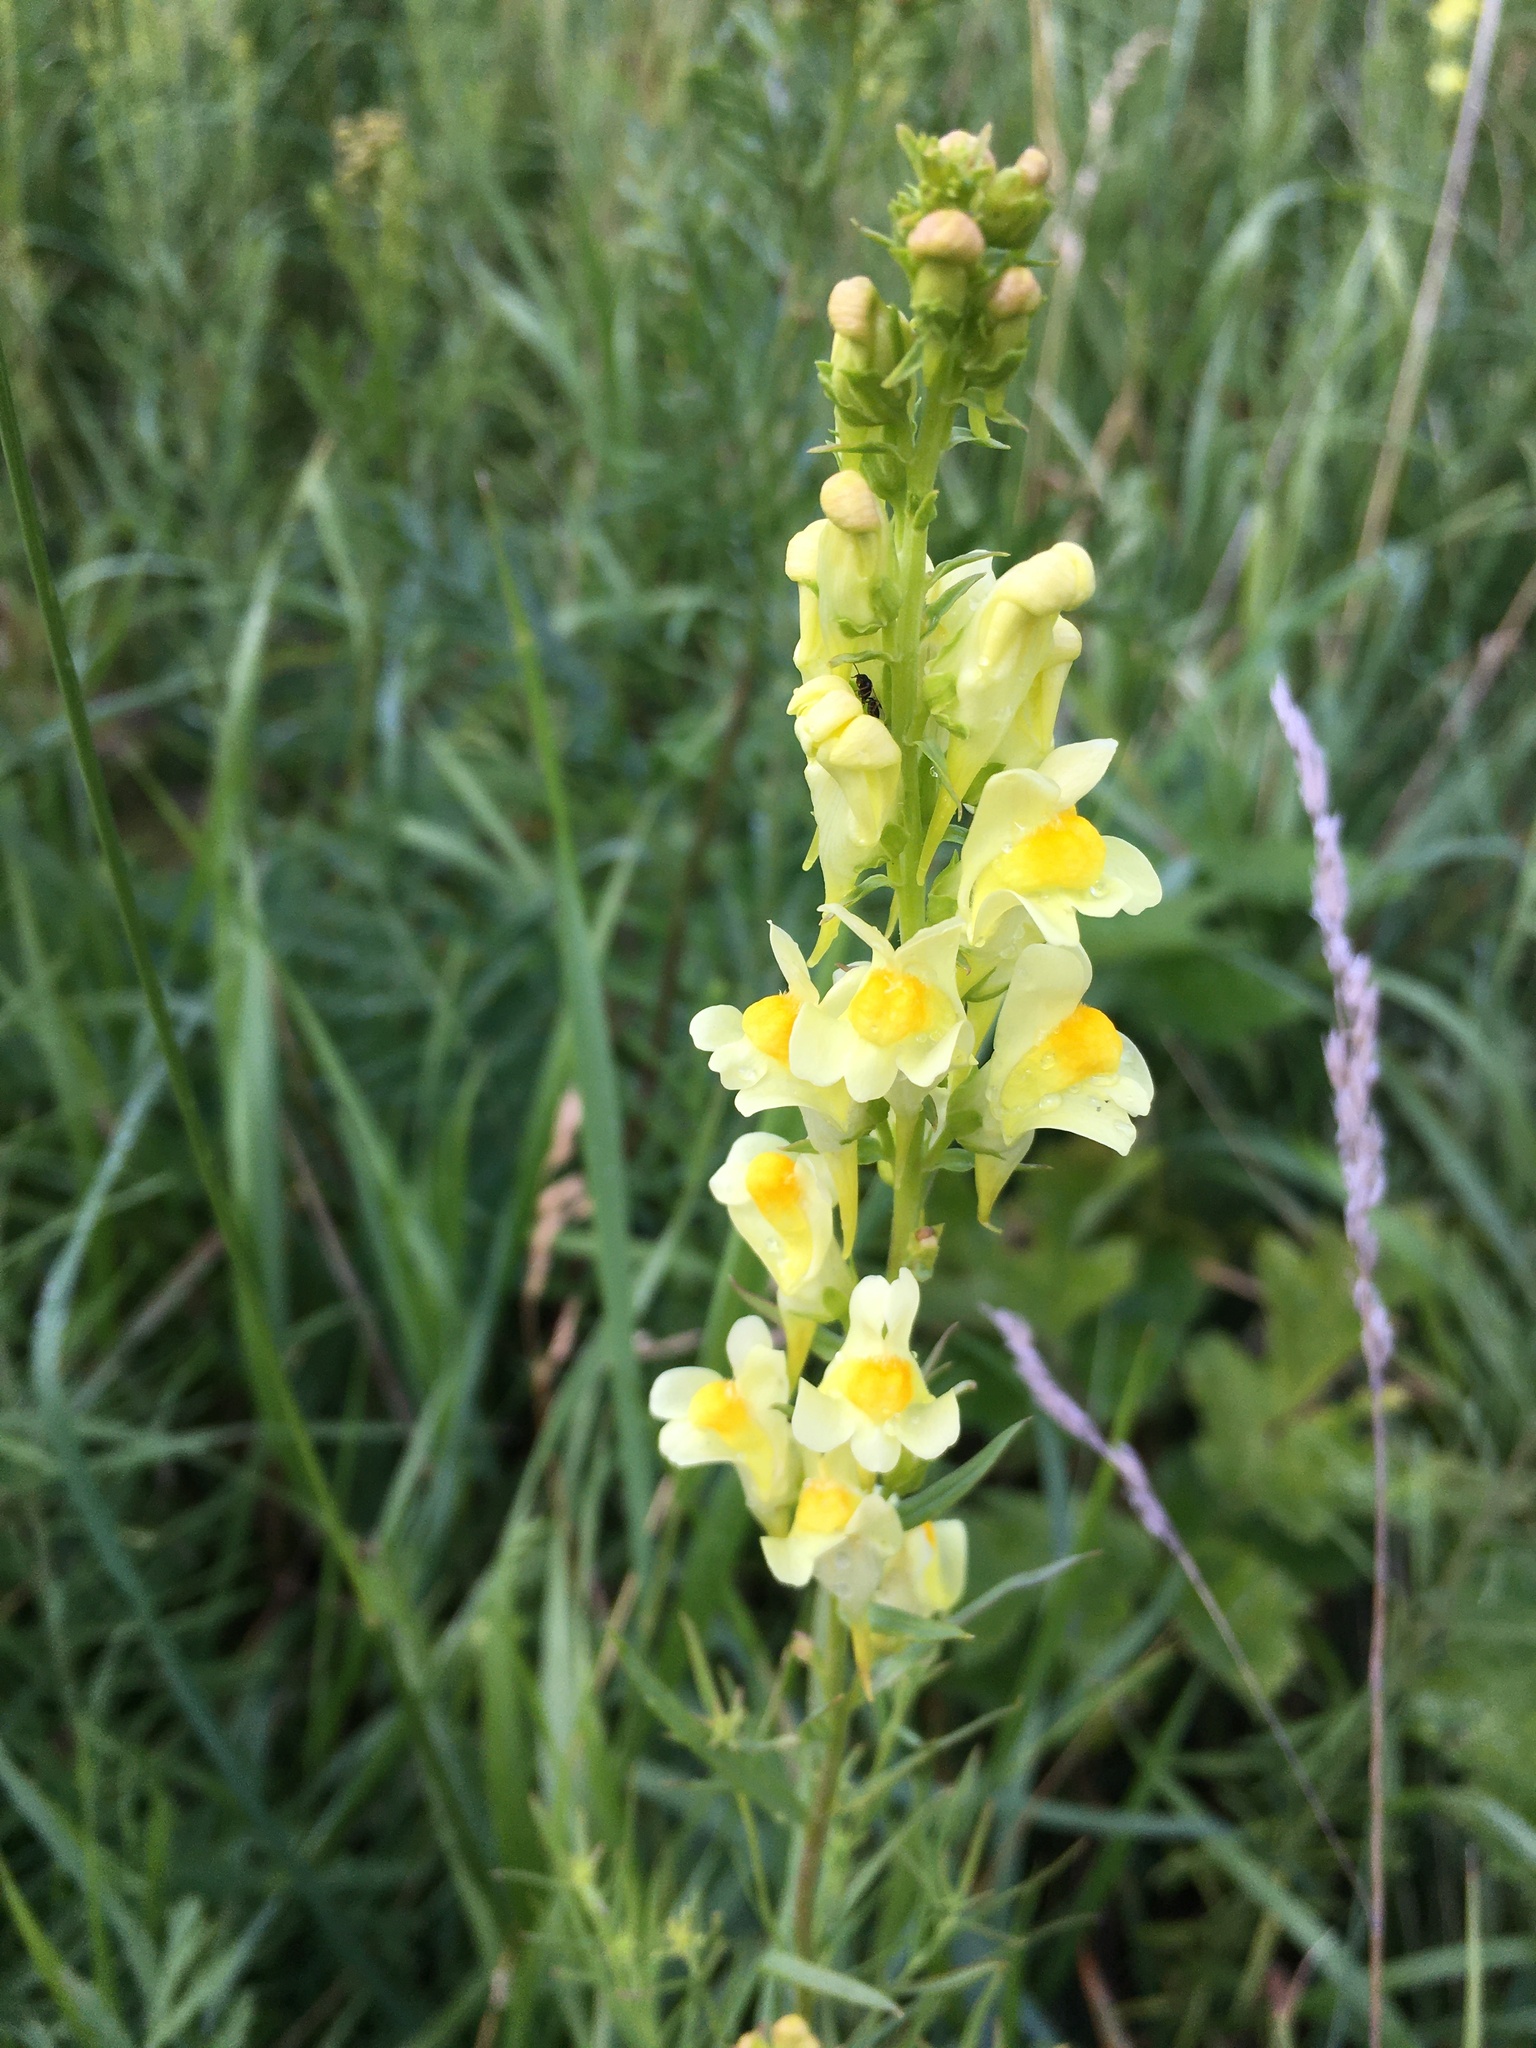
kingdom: Plantae
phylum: Tracheophyta
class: Magnoliopsida
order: Lamiales
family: Plantaginaceae
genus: Linaria
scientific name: Linaria vulgaris
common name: Butter and eggs
